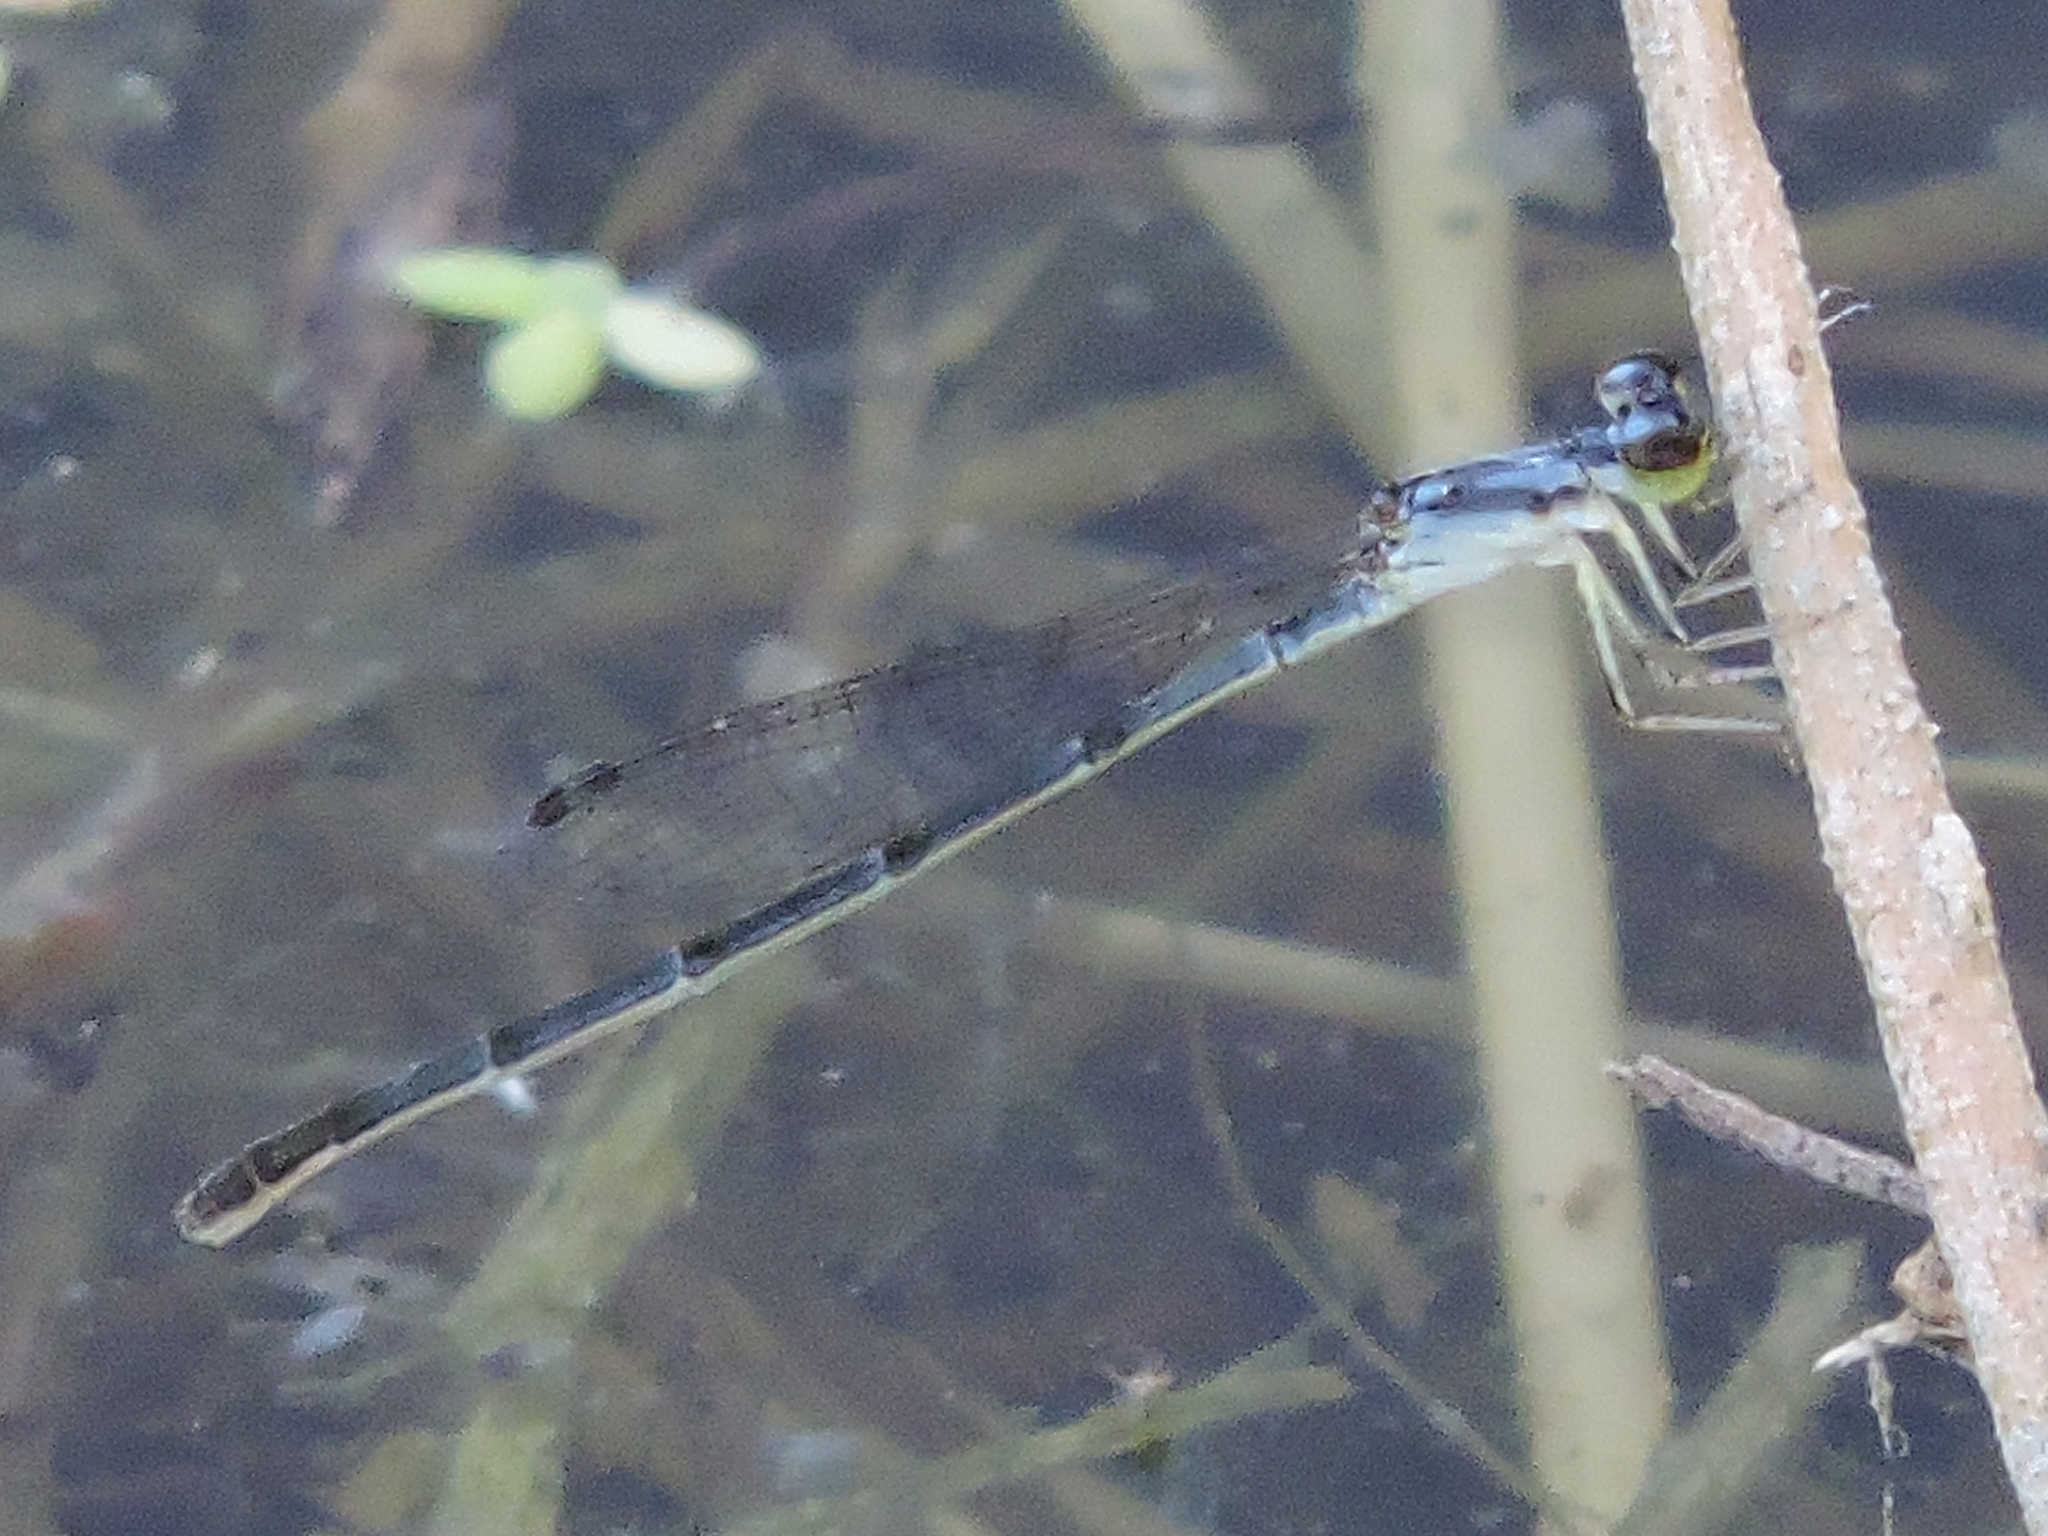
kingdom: Animalia
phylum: Arthropoda
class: Insecta
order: Odonata
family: Coenagrionidae
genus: Ischnura
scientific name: Ischnura posita
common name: Fragile forktail
